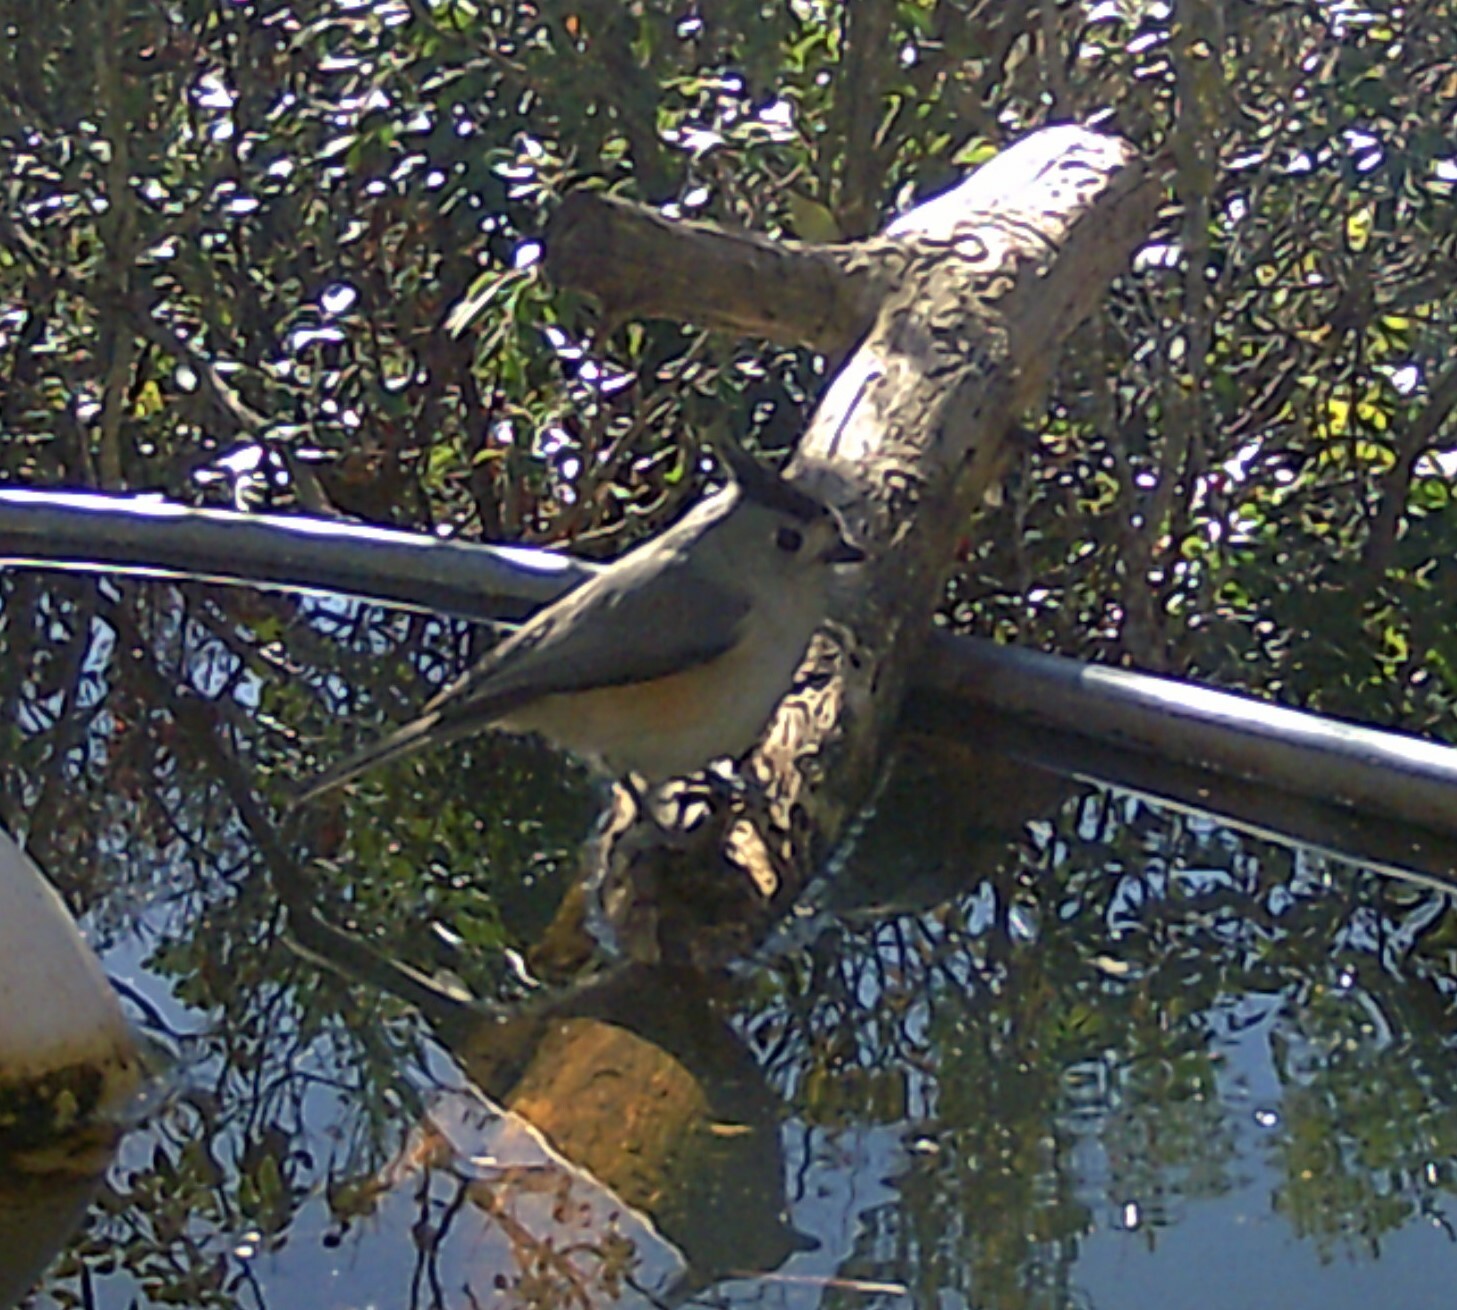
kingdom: Animalia
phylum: Chordata
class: Aves
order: Passeriformes
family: Paridae
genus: Baeolophus
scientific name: Baeolophus atricristatus
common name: Black-crested titmouse
